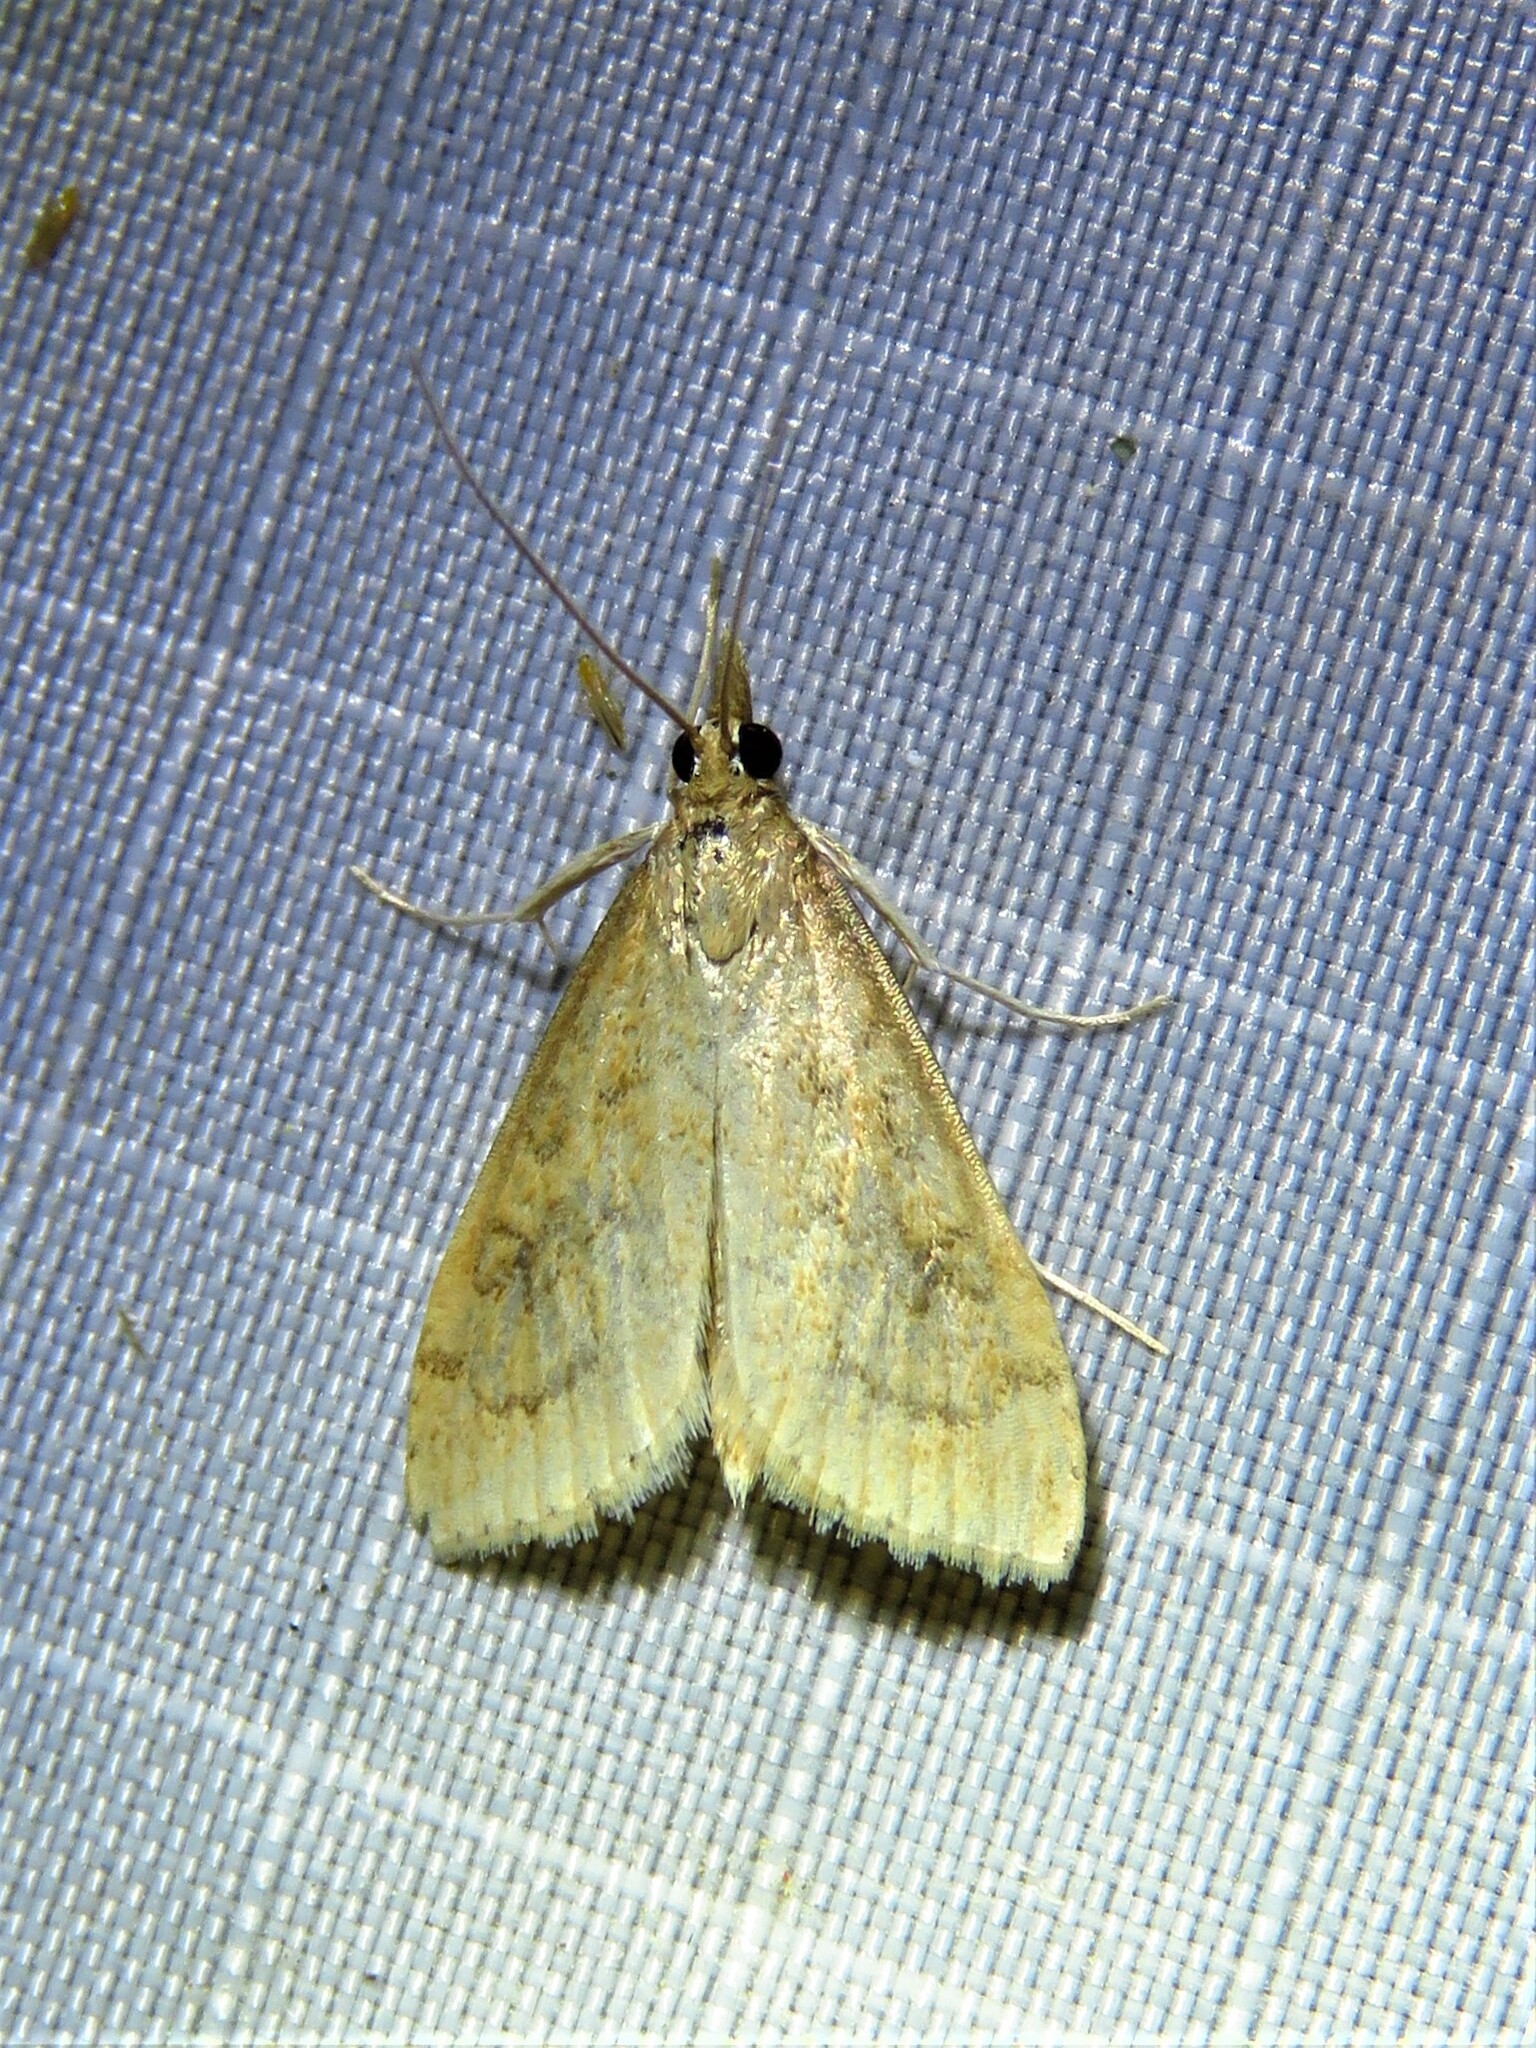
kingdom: Animalia
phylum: Arthropoda
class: Insecta
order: Lepidoptera
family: Crambidae
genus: Udea
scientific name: Udea rubigalis
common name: Celery leaftier moth
